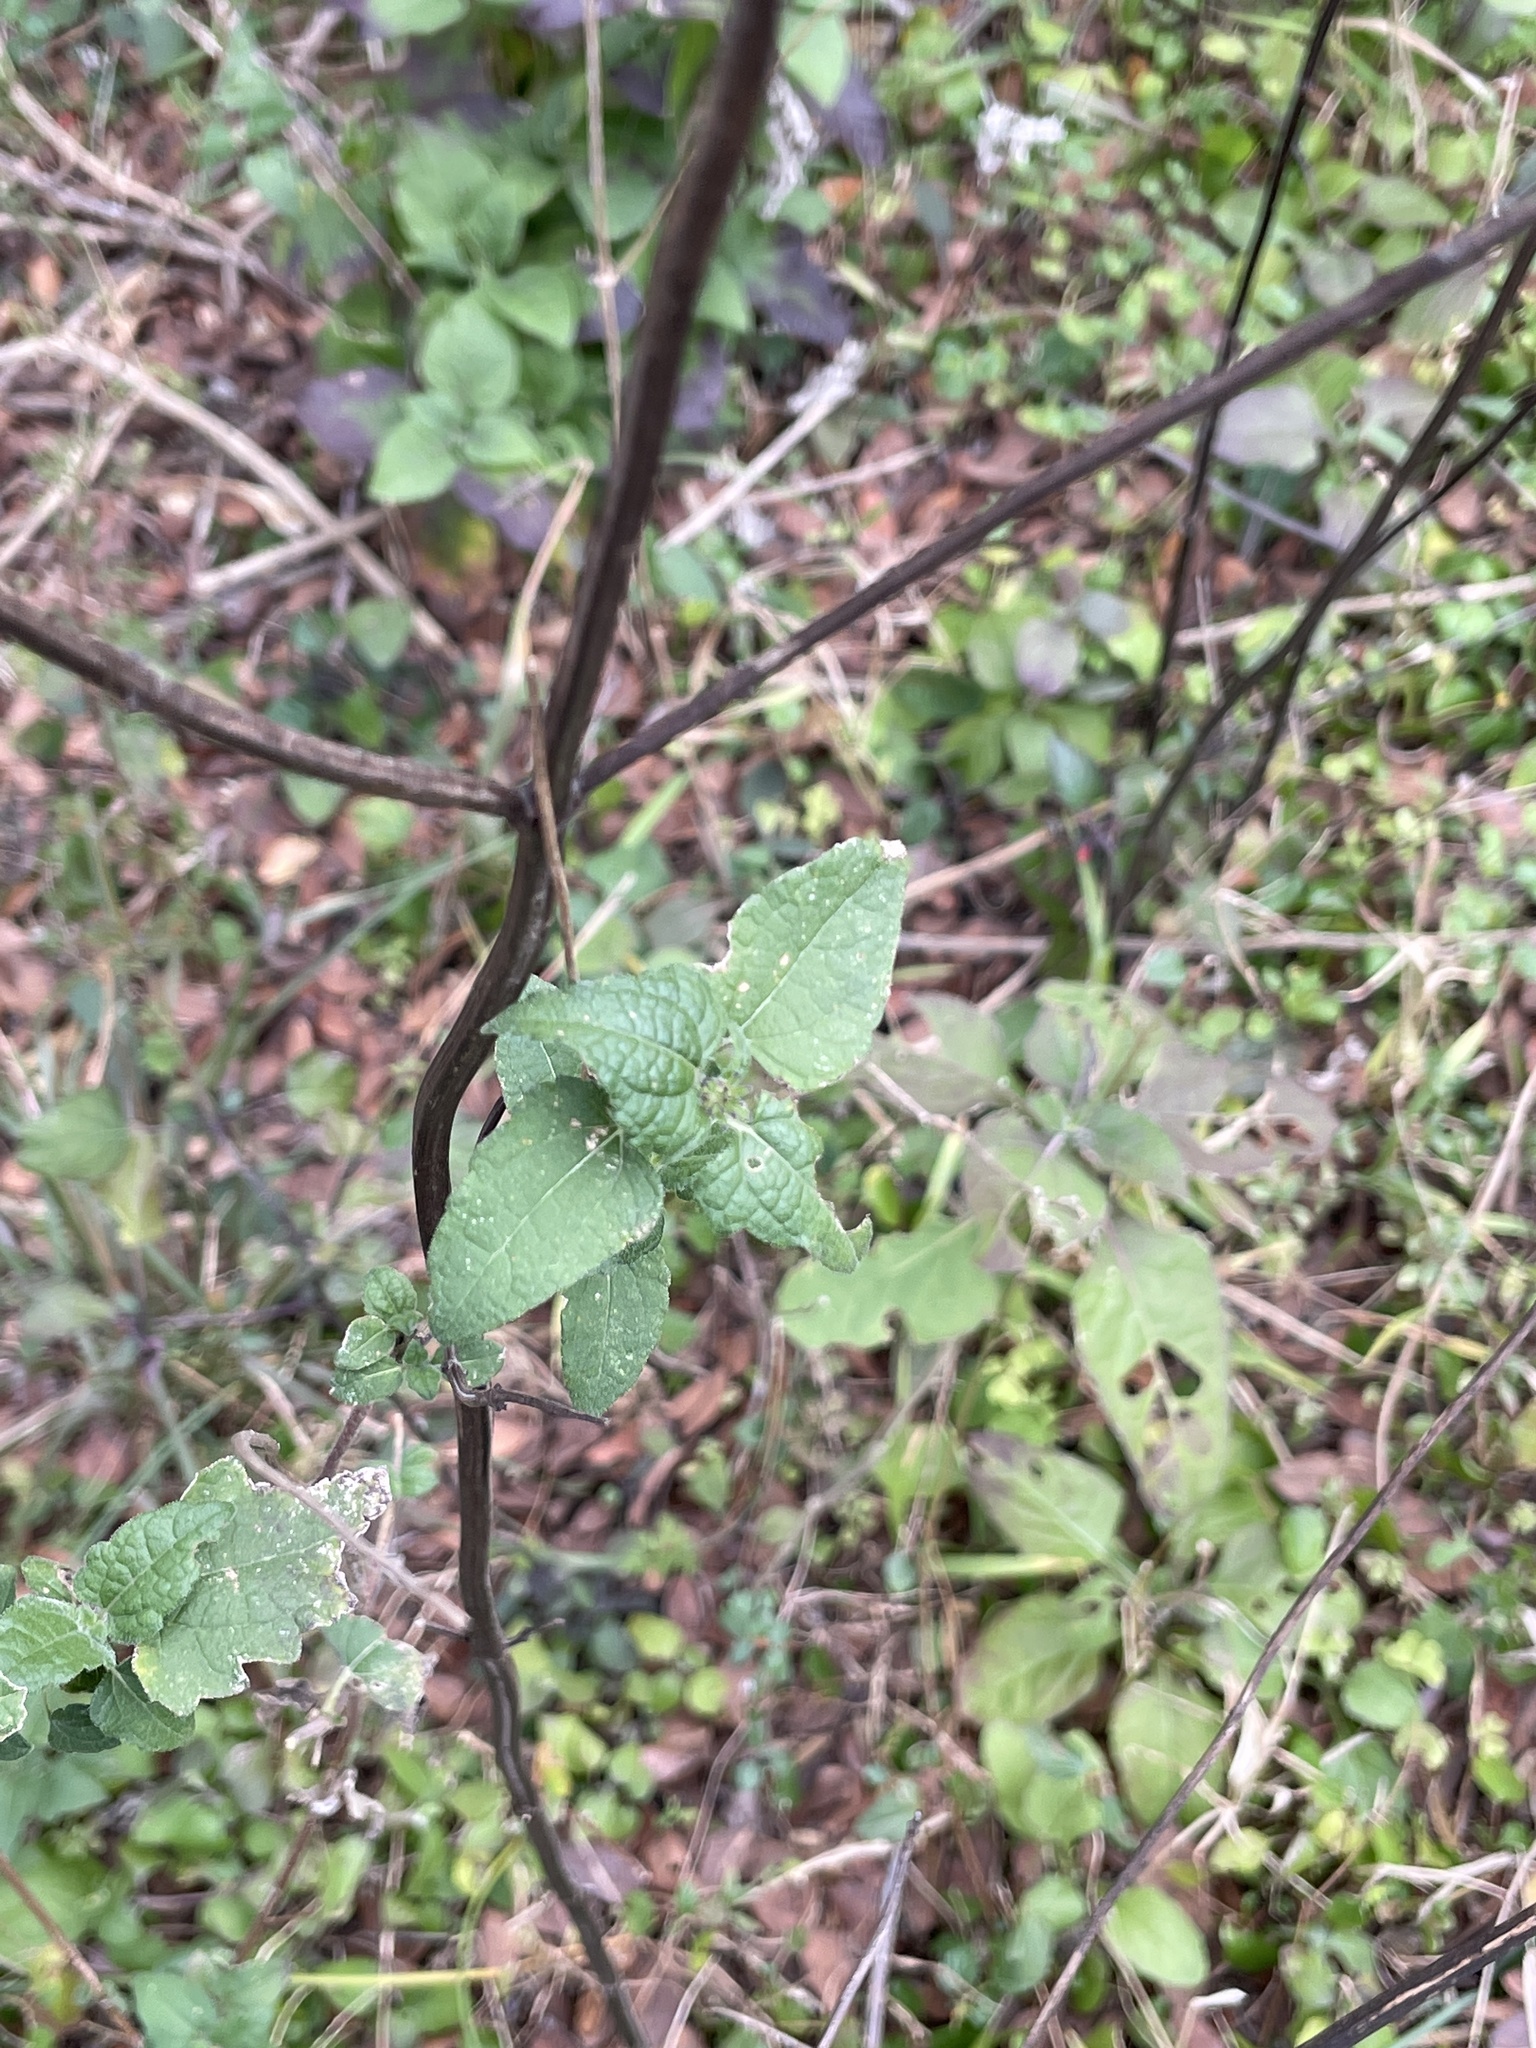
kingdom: Plantae
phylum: Tracheophyta
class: Magnoliopsida
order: Asterales
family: Asteraceae
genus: Simsia
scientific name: Simsia calva
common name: Awnless bush-sunflower
